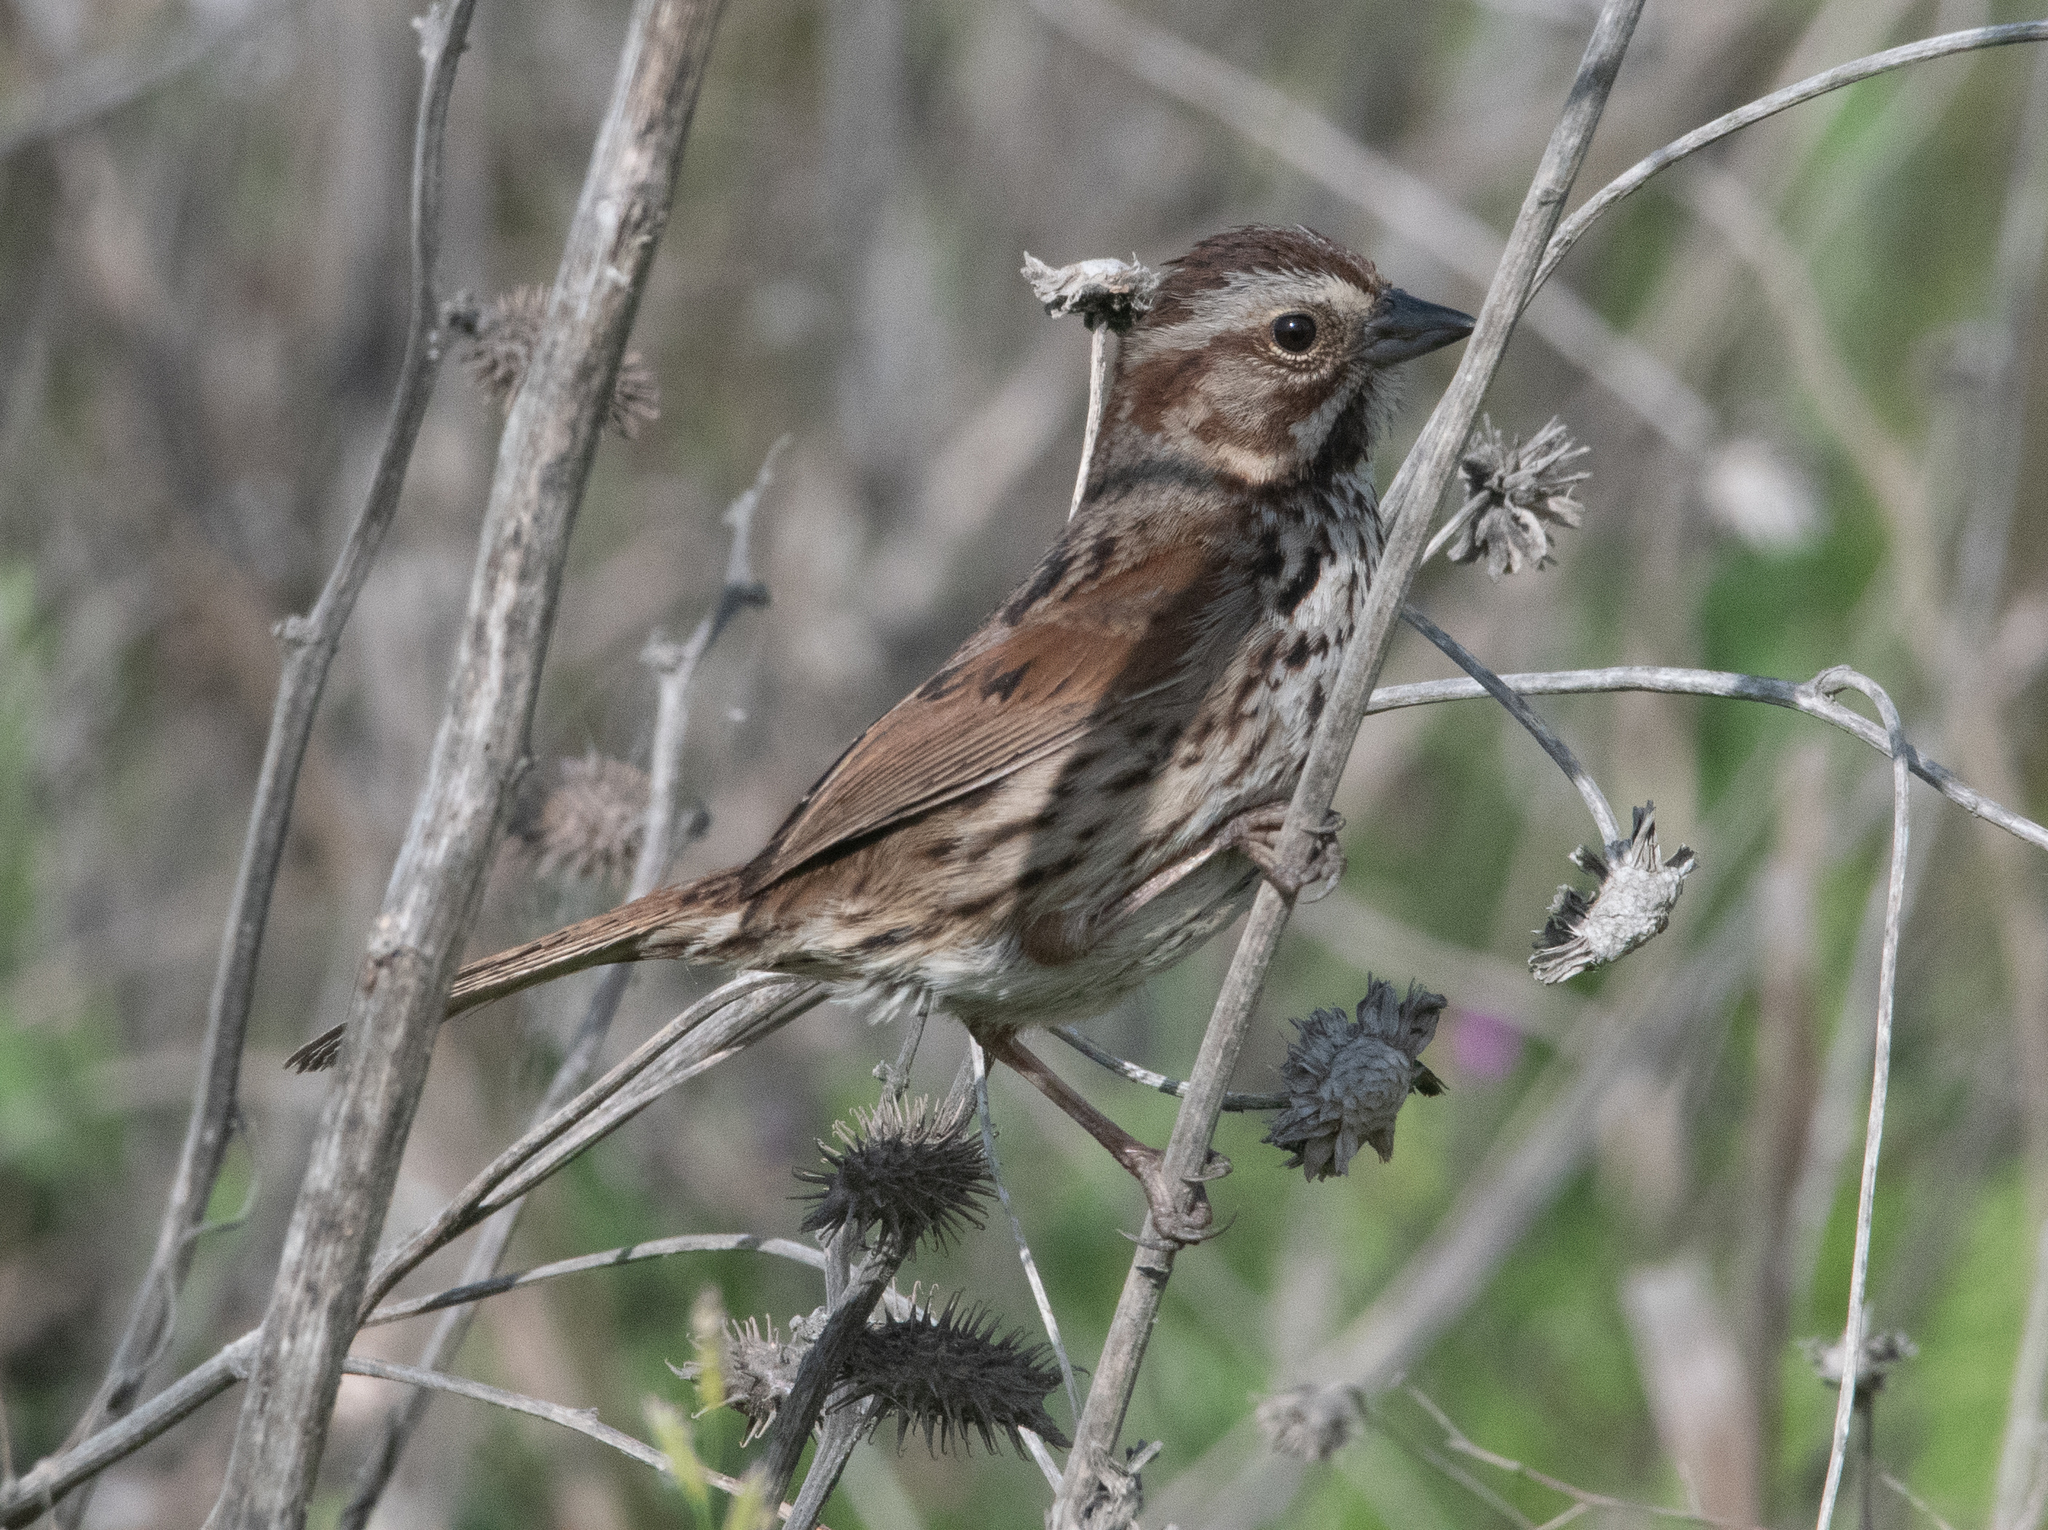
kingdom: Animalia
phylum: Chordata
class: Aves
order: Passeriformes
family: Passerellidae
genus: Melospiza
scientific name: Melospiza melodia
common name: Song sparrow
